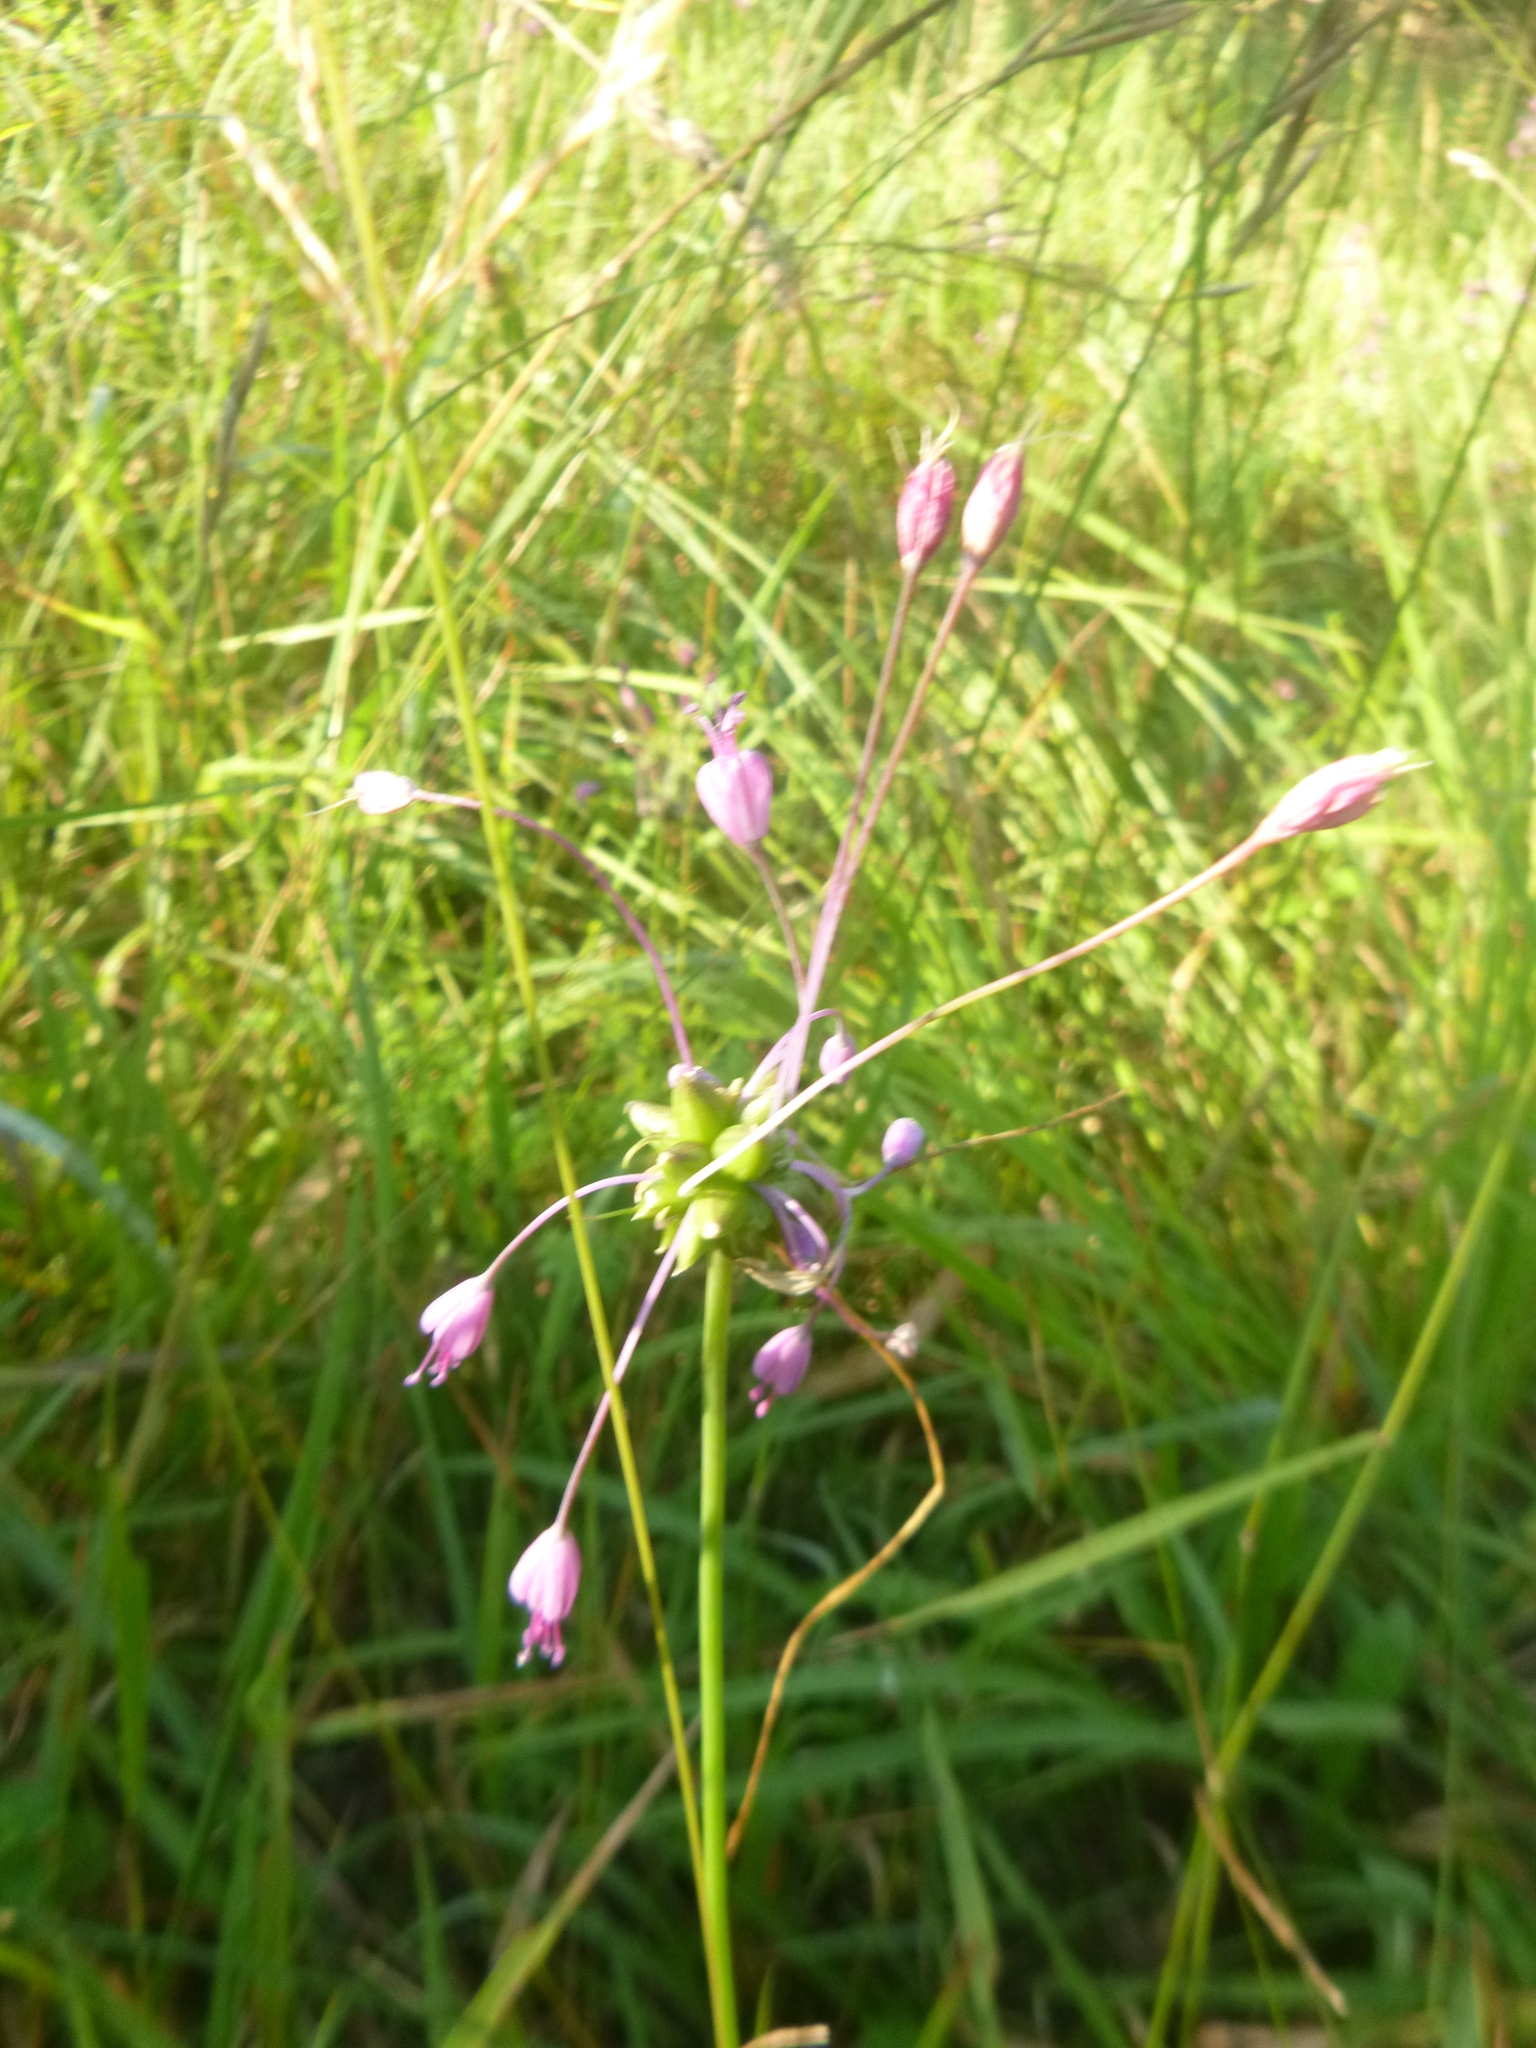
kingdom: Plantae
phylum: Tracheophyta
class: Liliopsida
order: Asparagales
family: Amaryllidaceae
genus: Allium
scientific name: Allium carinatum
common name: Keeled garlic
